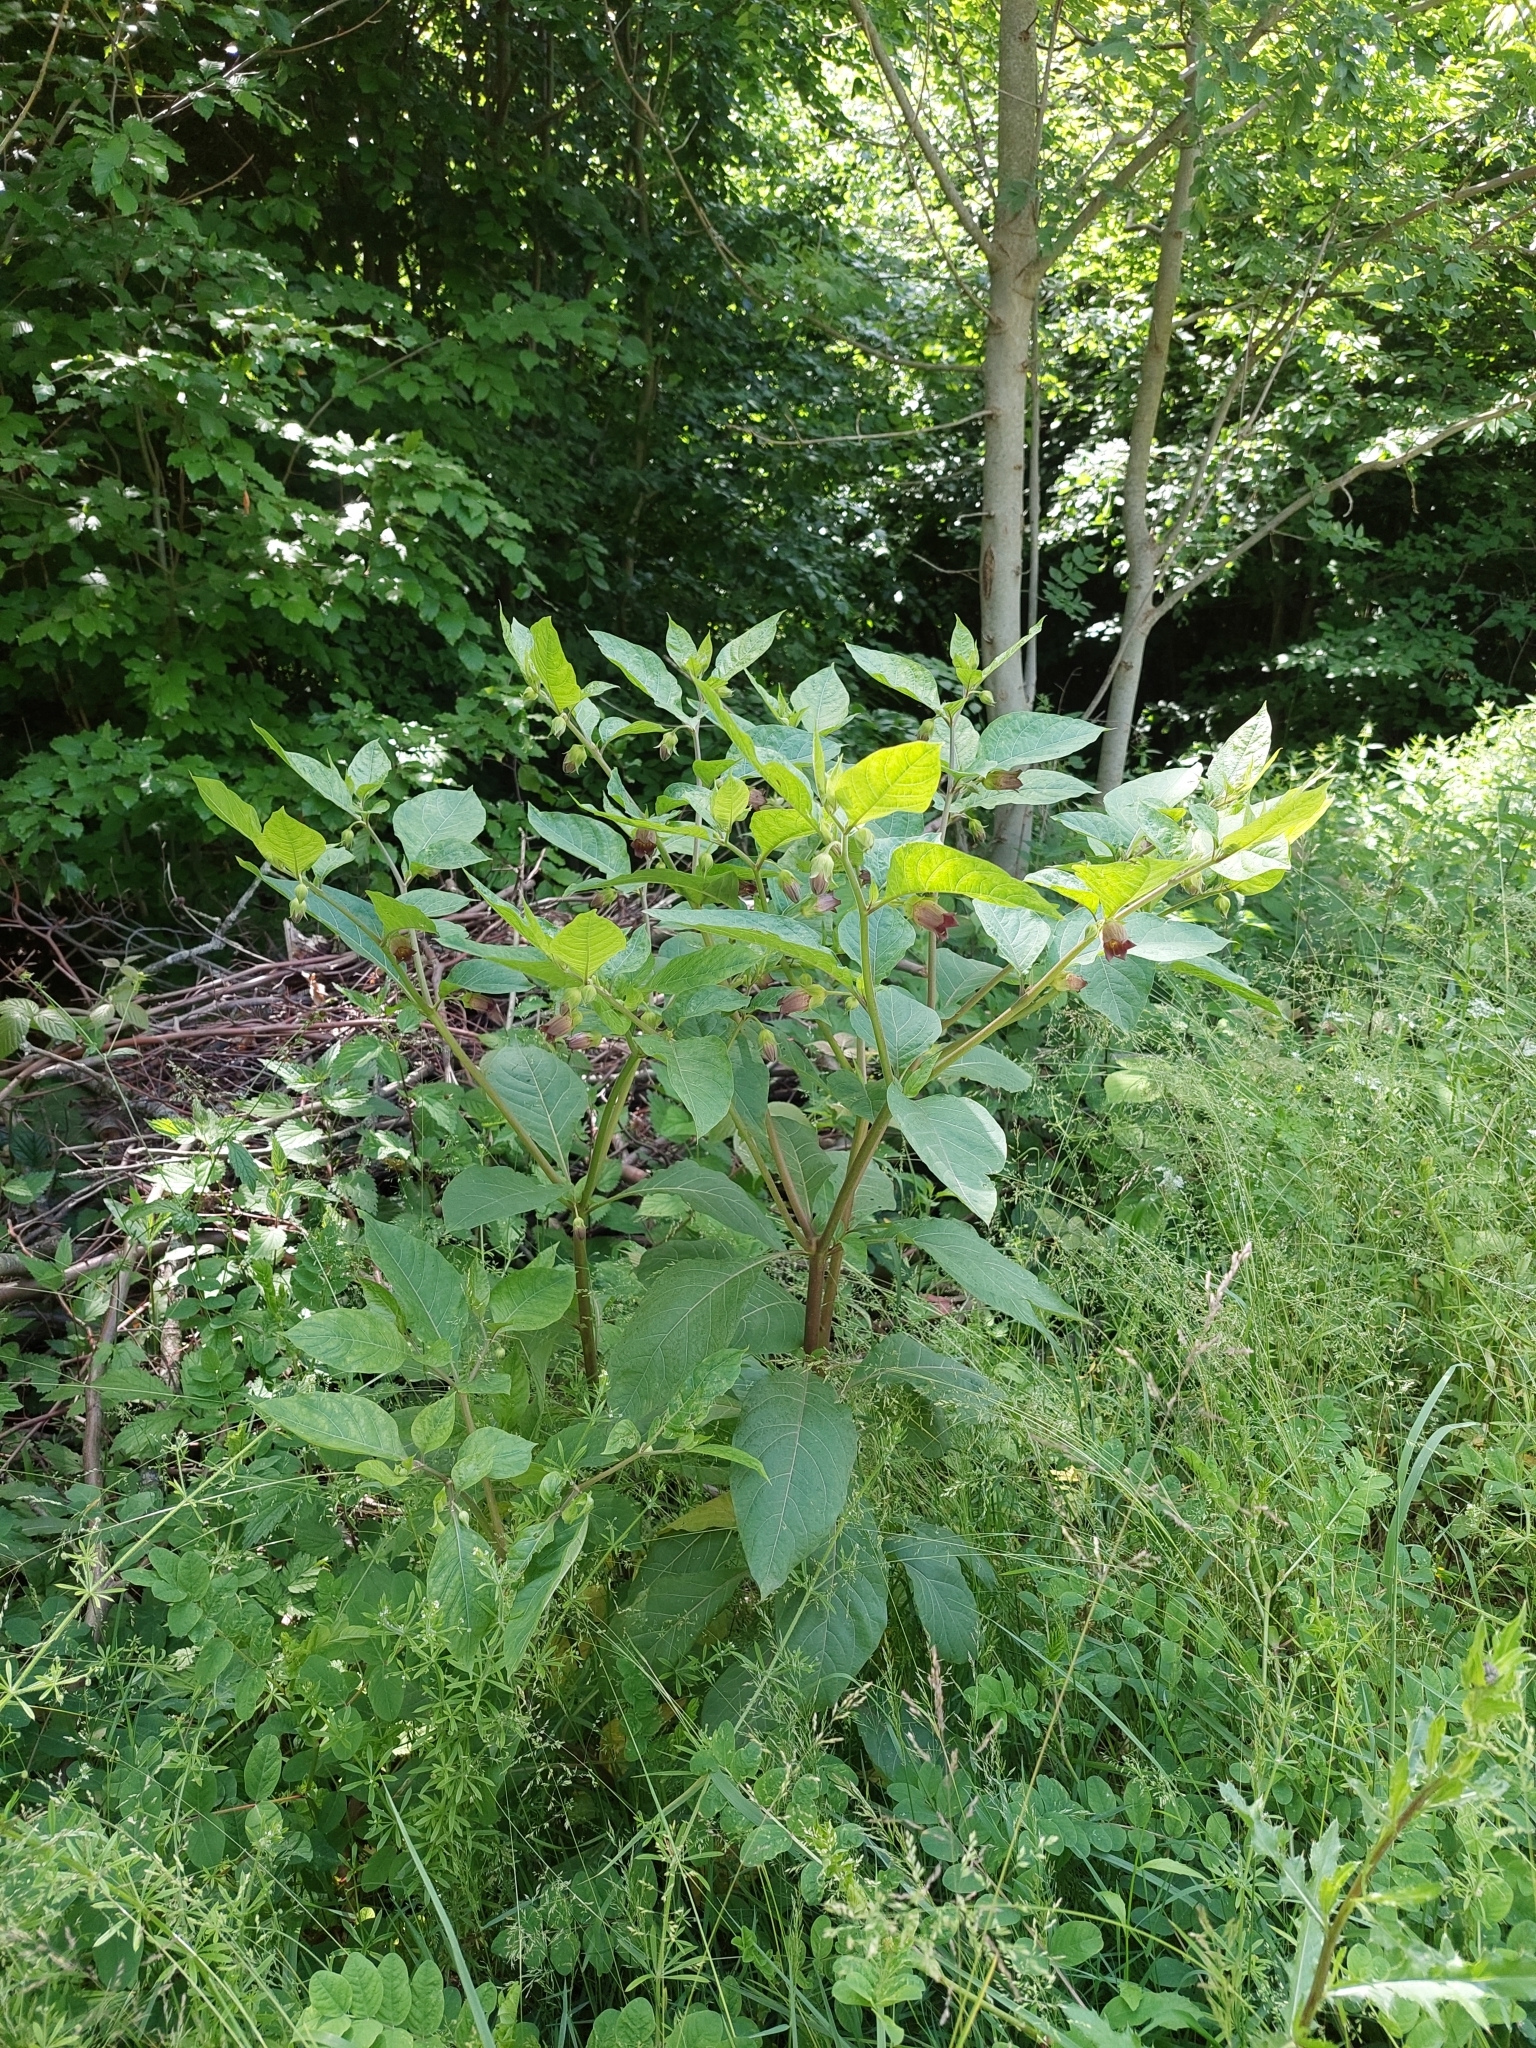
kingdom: Plantae
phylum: Tracheophyta
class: Magnoliopsida
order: Solanales
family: Solanaceae
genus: Atropa
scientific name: Atropa belladonna
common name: Deadly nightshade
